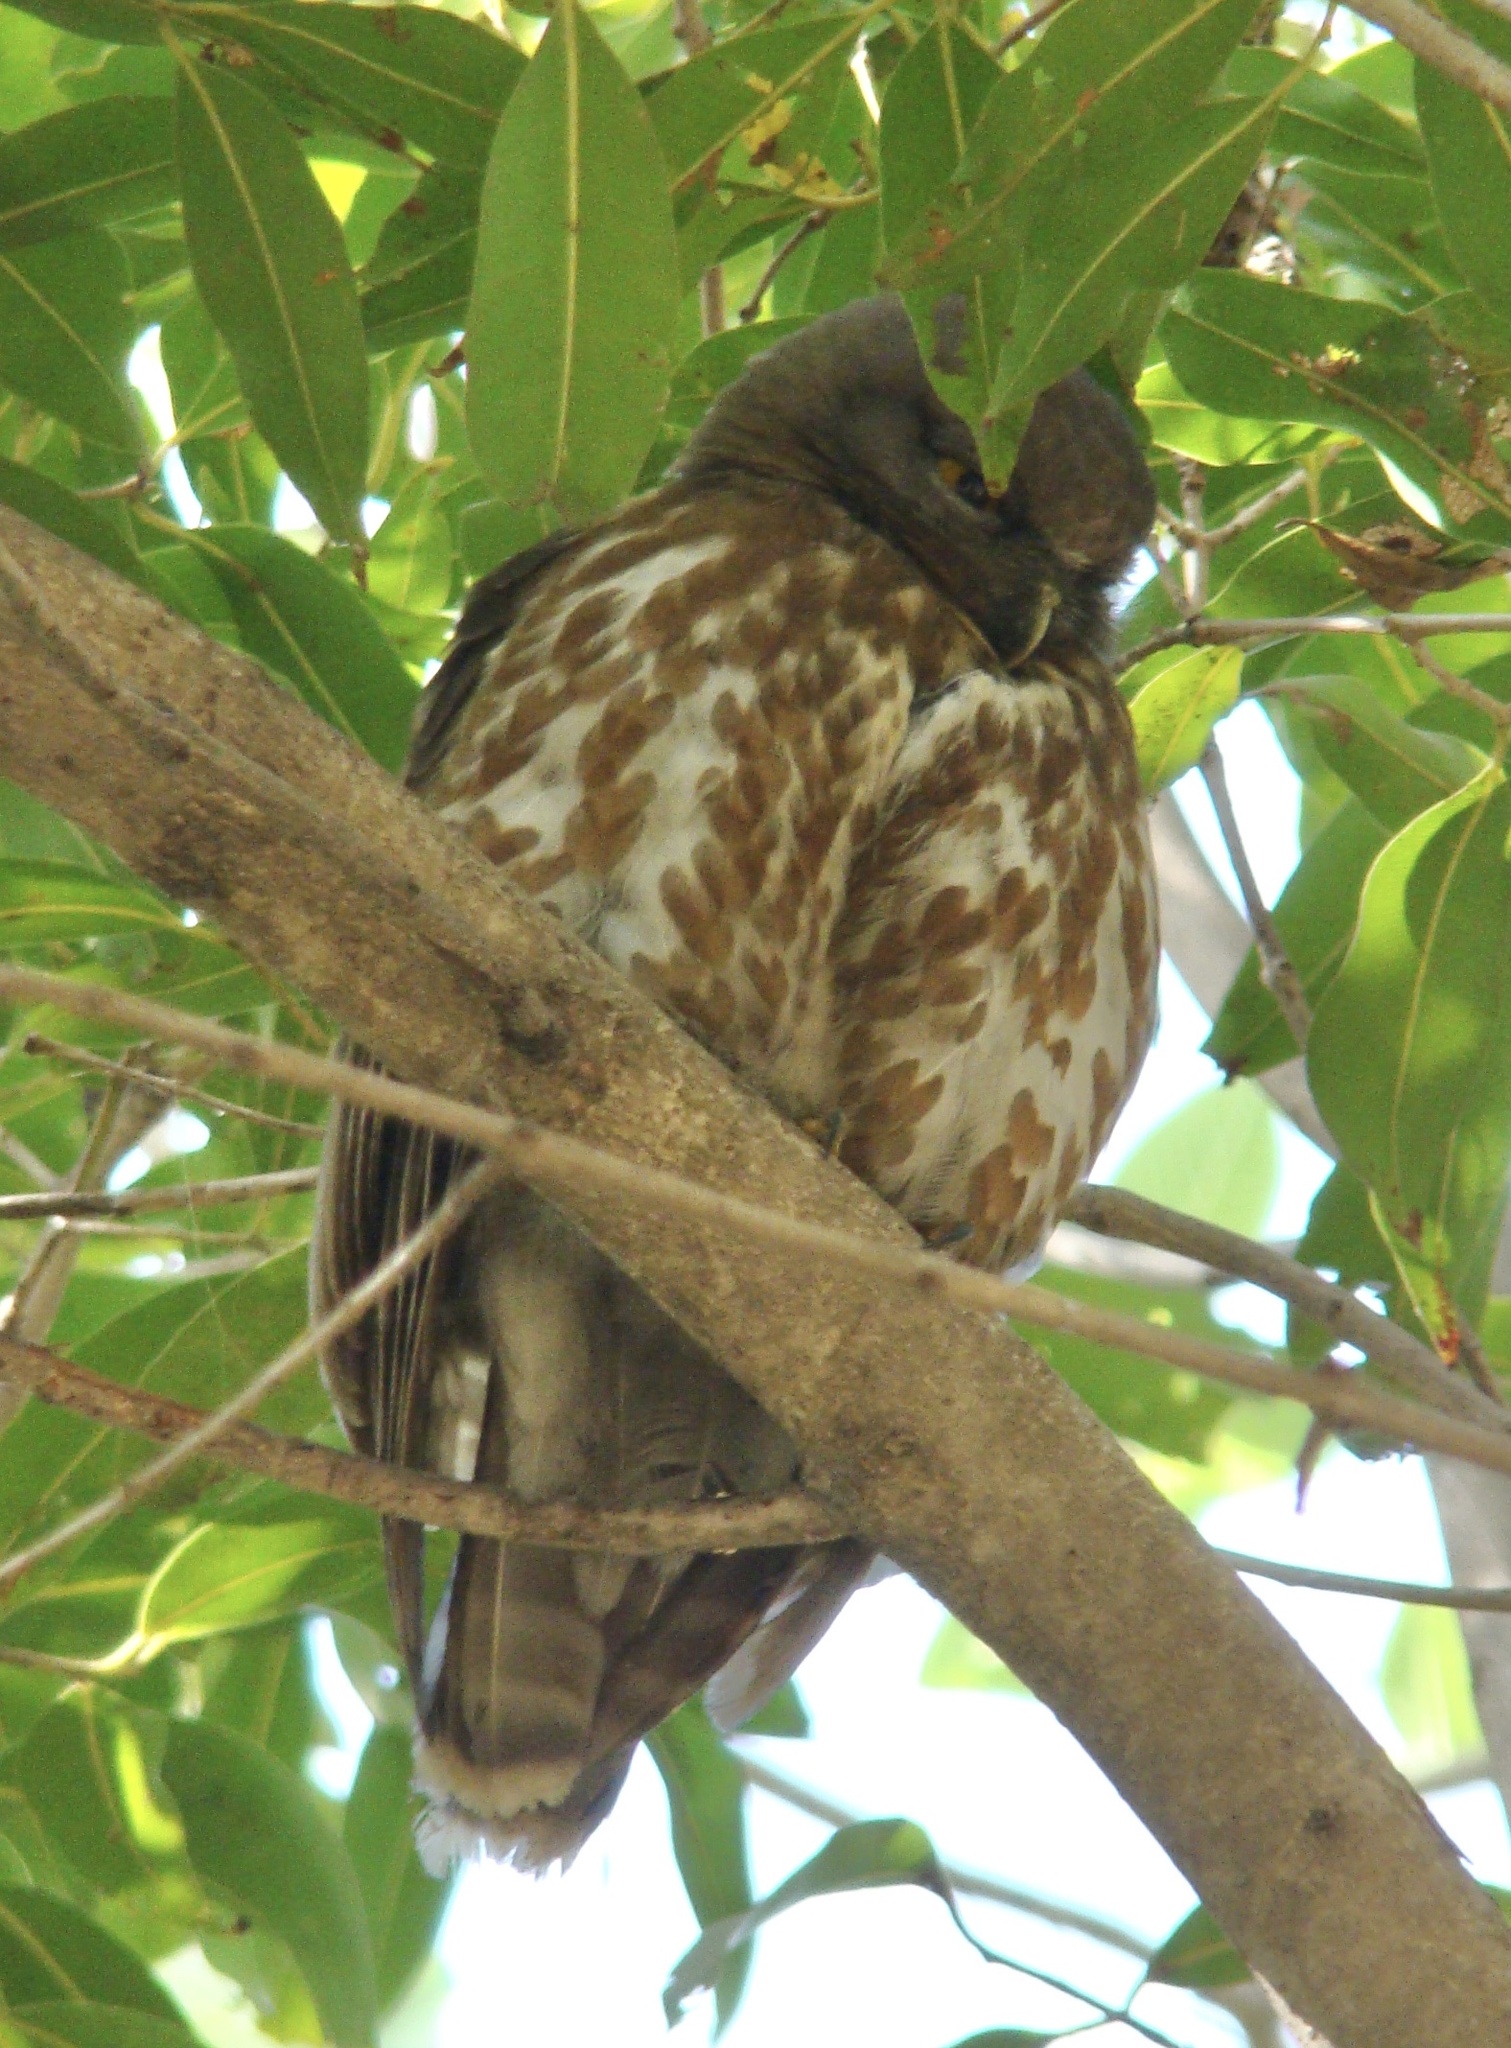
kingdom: Animalia
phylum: Chordata
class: Aves
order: Strigiformes
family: Strigidae
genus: Ninox
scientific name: Ninox scutulata
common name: Brown hawk-owl
